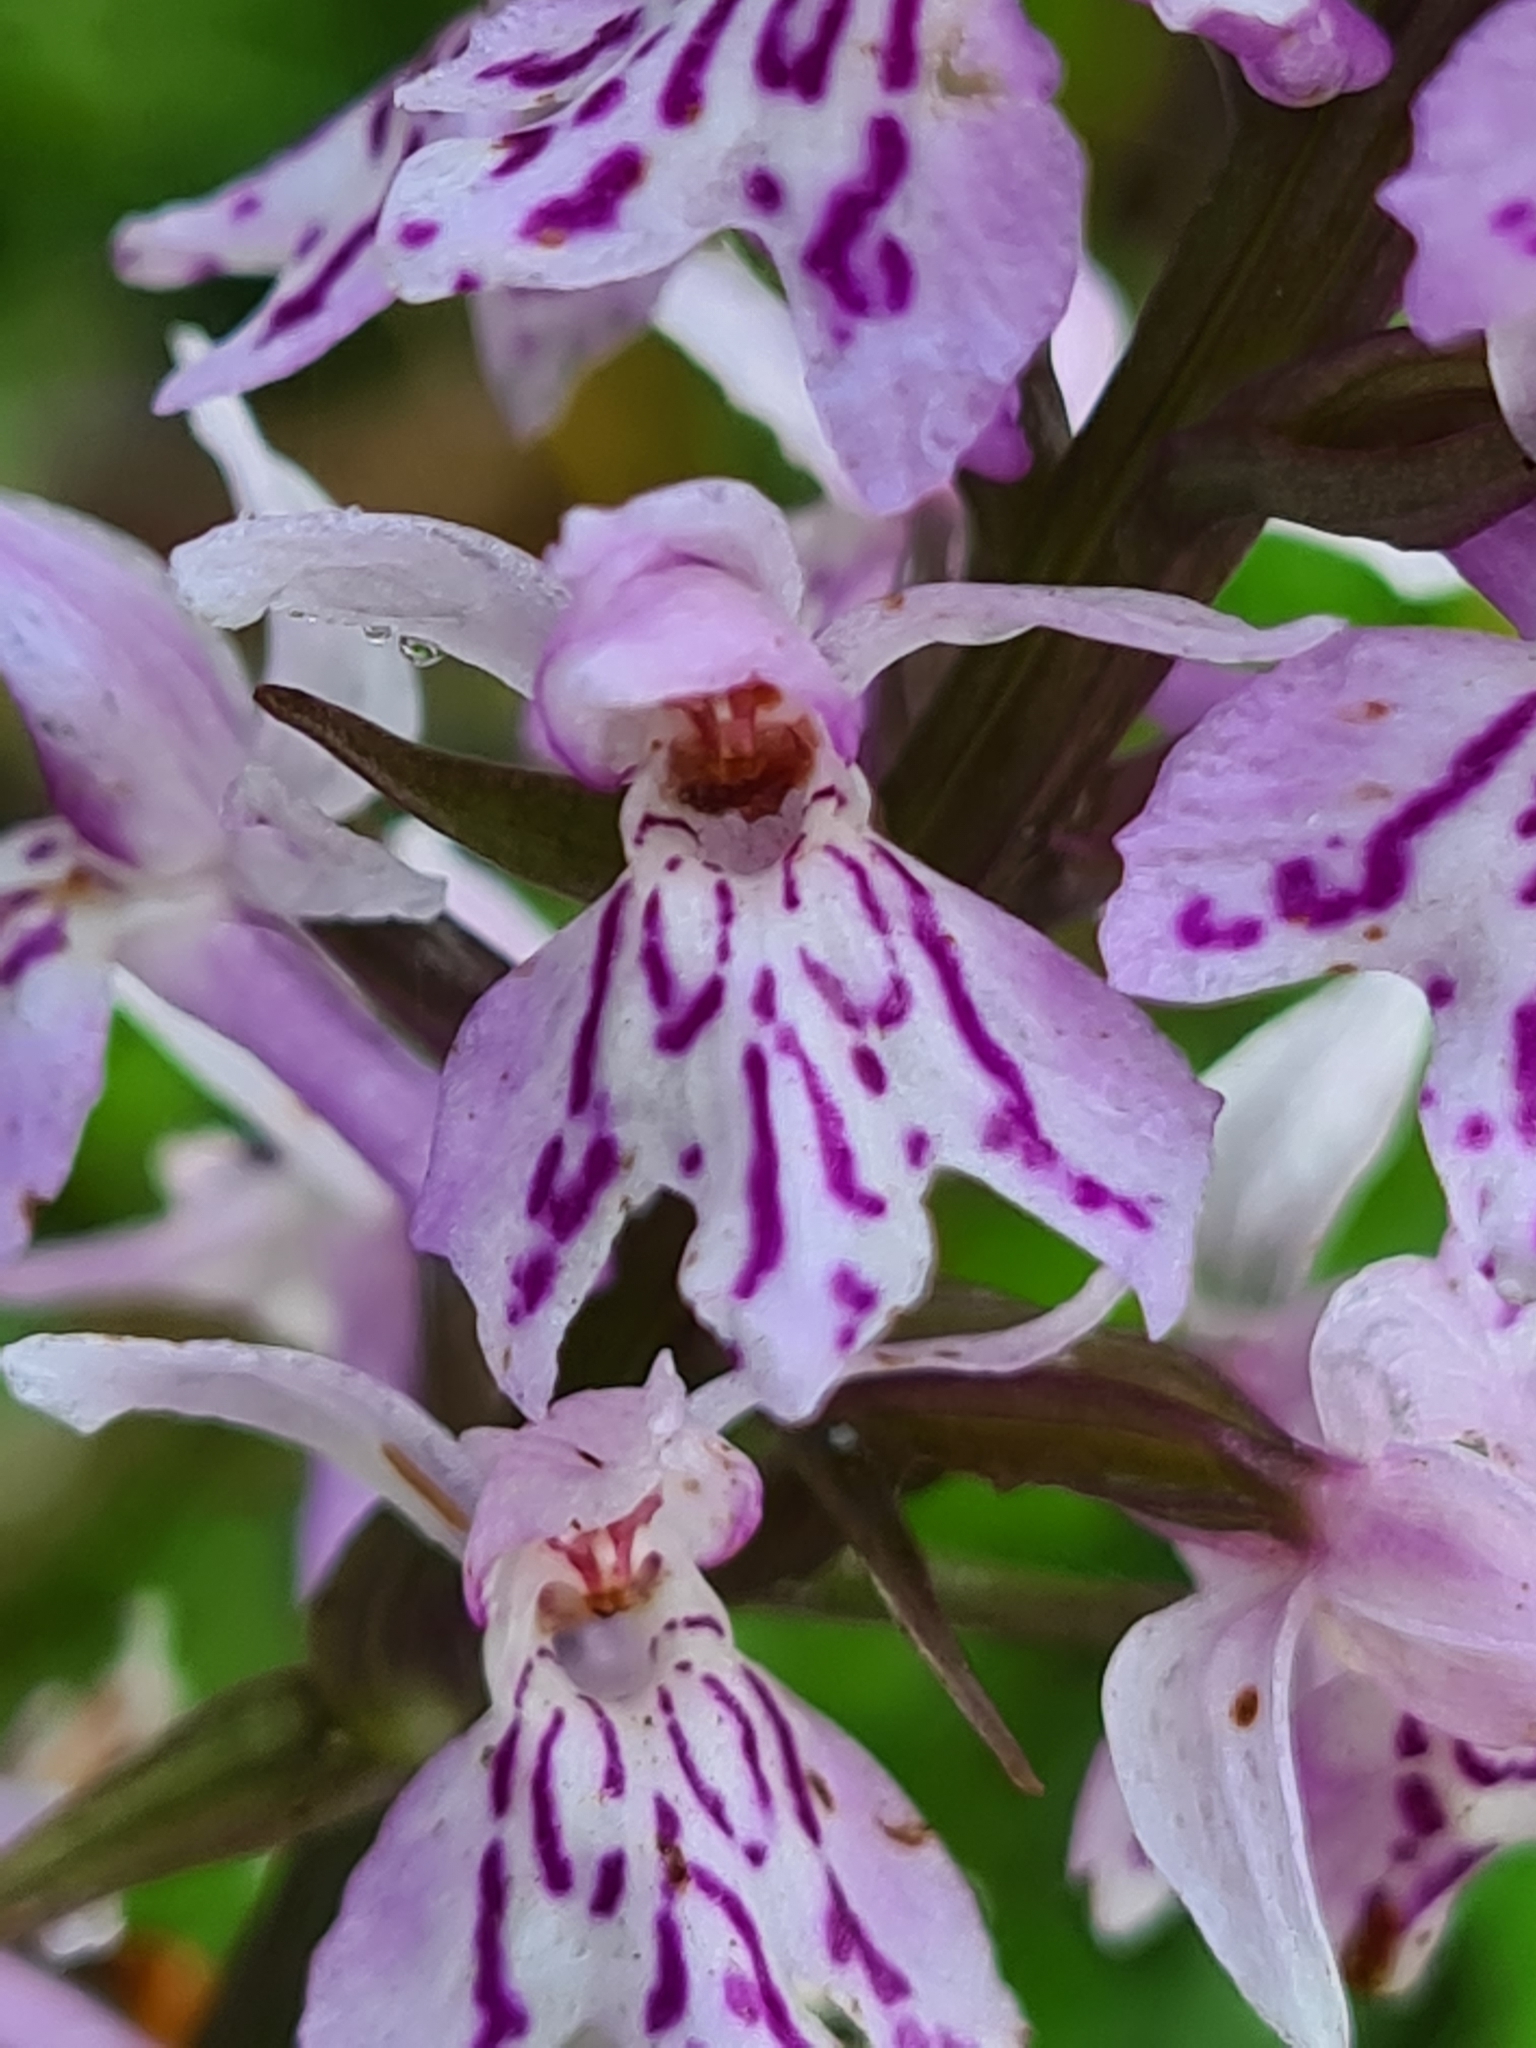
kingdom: Plantae
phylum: Tracheophyta
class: Liliopsida
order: Asparagales
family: Orchidaceae
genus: Dactylorhiza
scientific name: Dactylorhiza maculata
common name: Heath spotted-orchid
